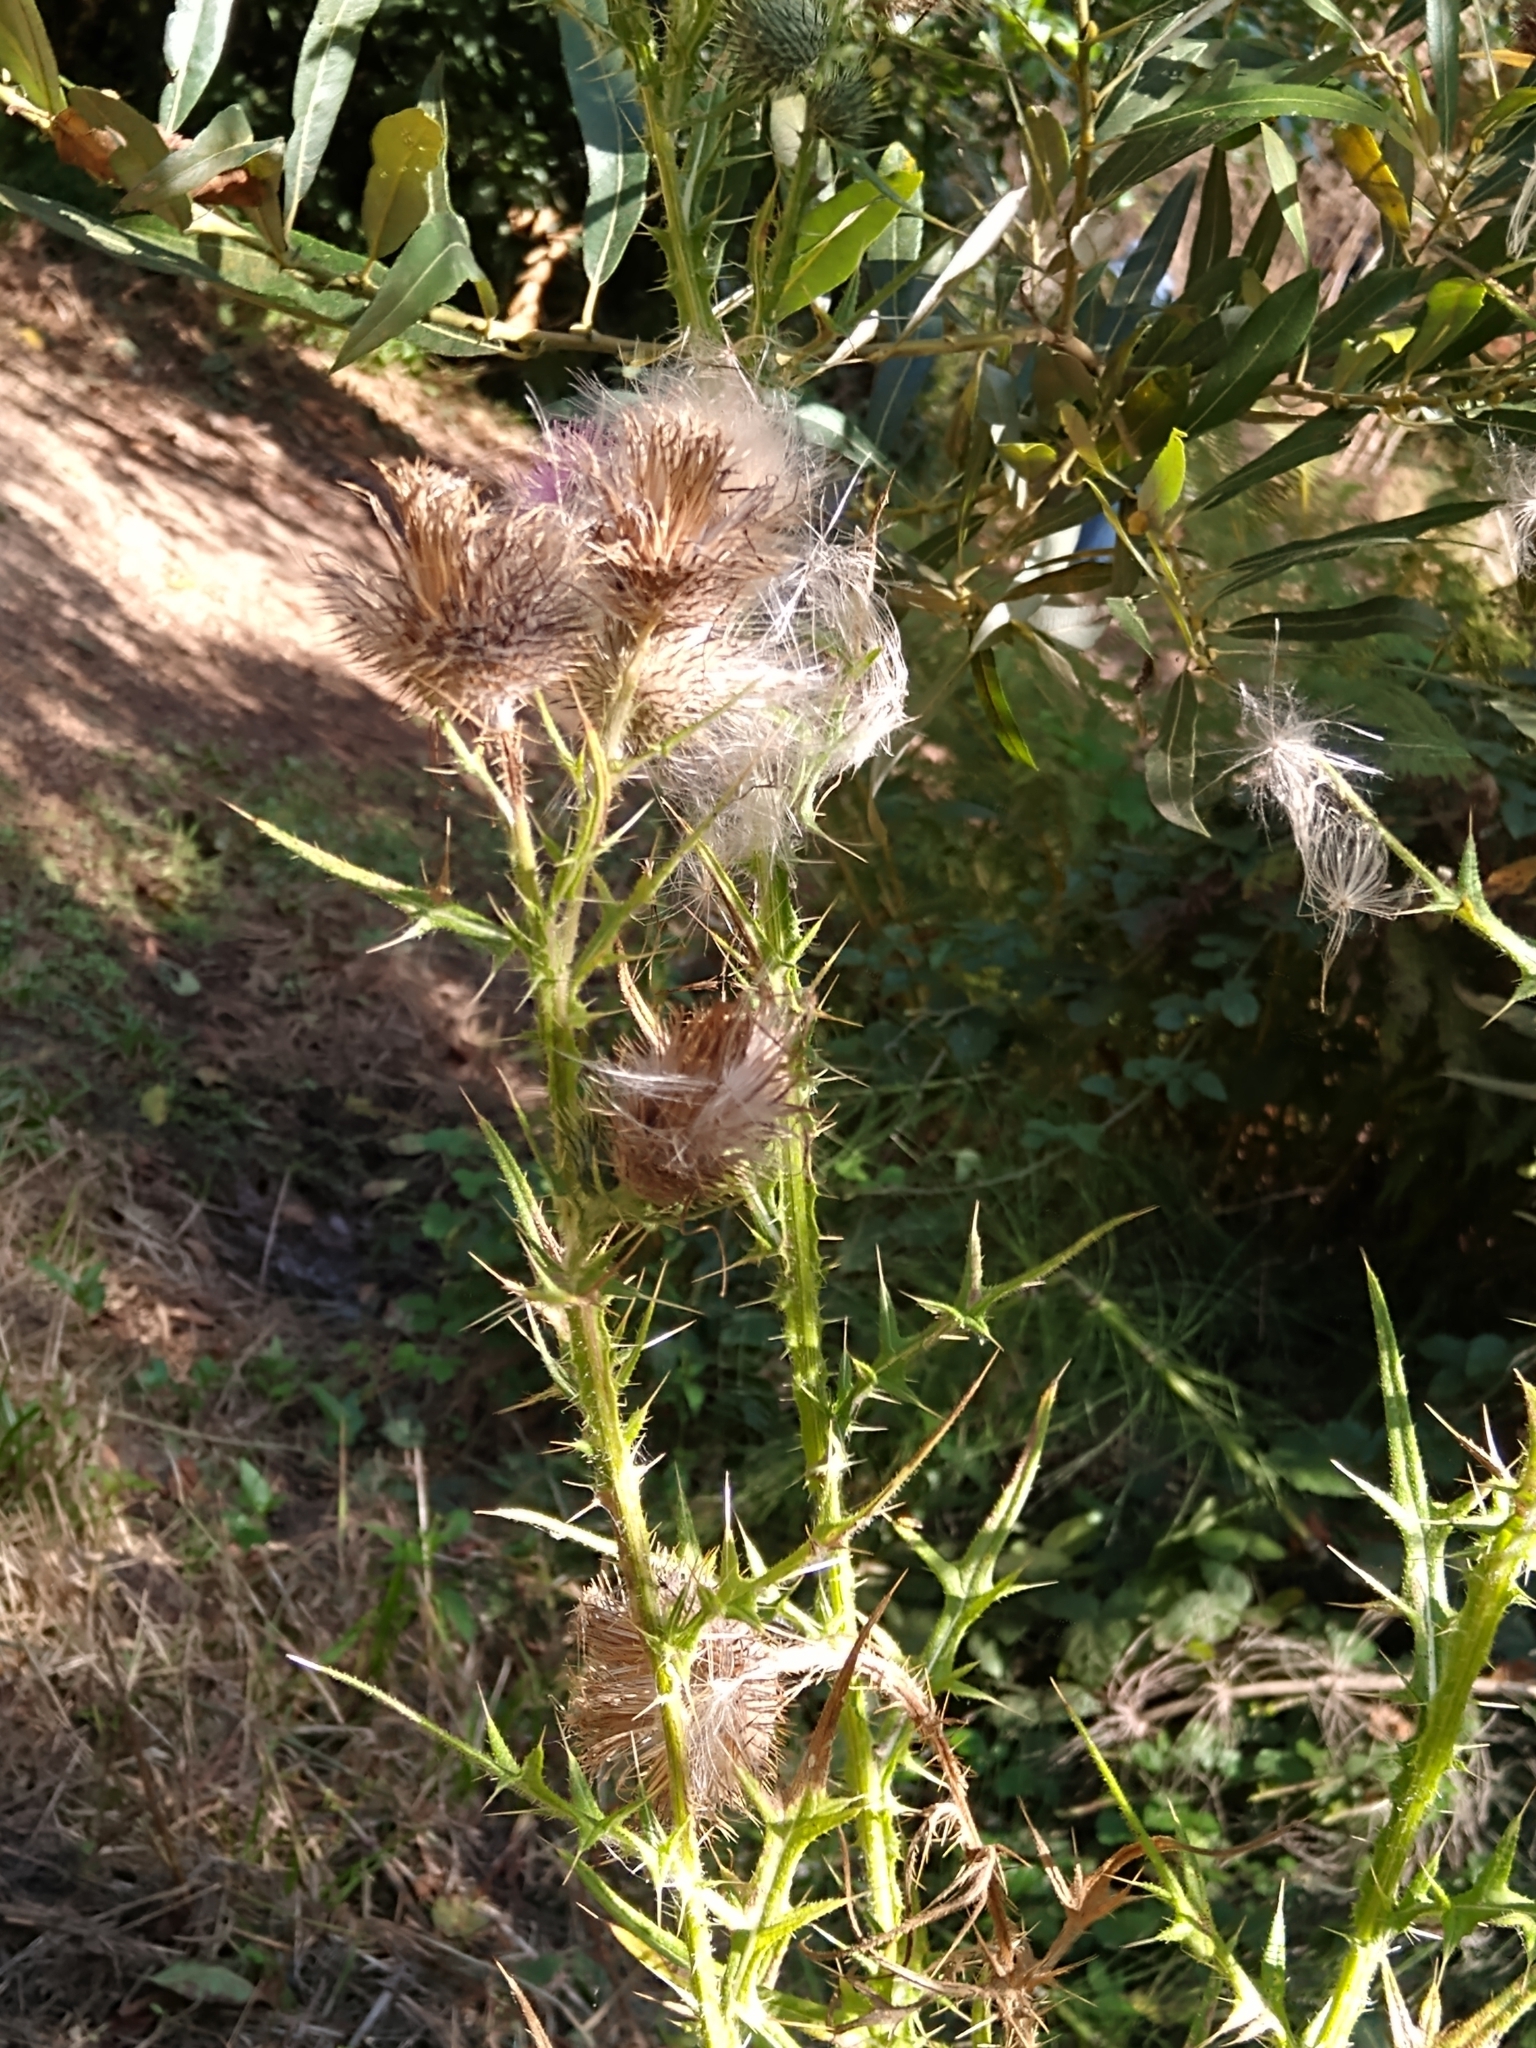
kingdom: Plantae
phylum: Tracheophyta
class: Magnoliopsida
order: Asterales
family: Asteraceae
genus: Cirsium
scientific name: Cirsium vulgare
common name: Bull thistle
